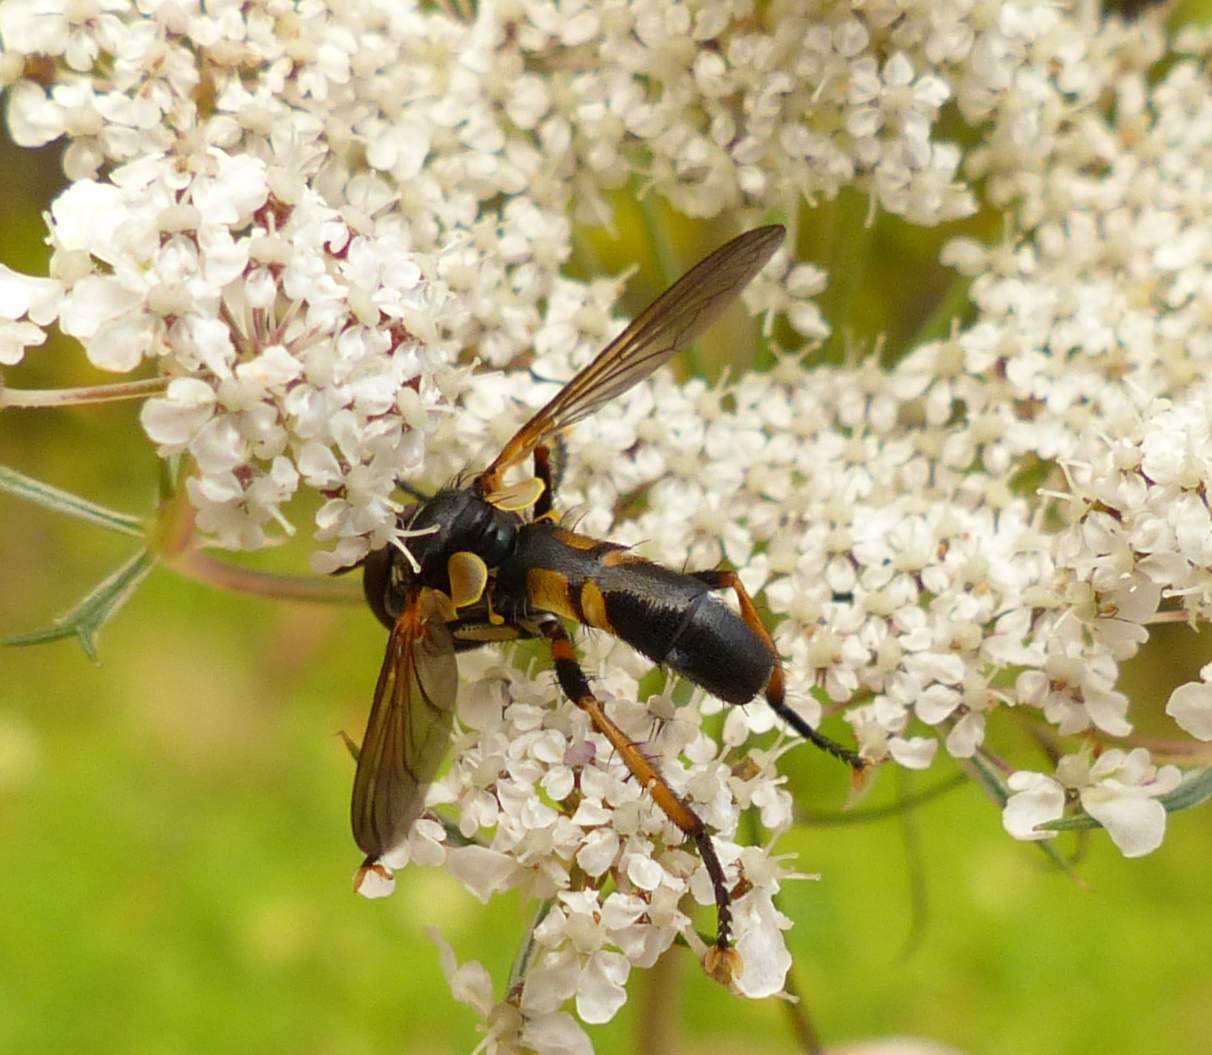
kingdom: Animalia
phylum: Arthropoda
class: Insecta
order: Diptera
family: Tachinidae
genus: Hemyda
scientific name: Hemyda aurata
